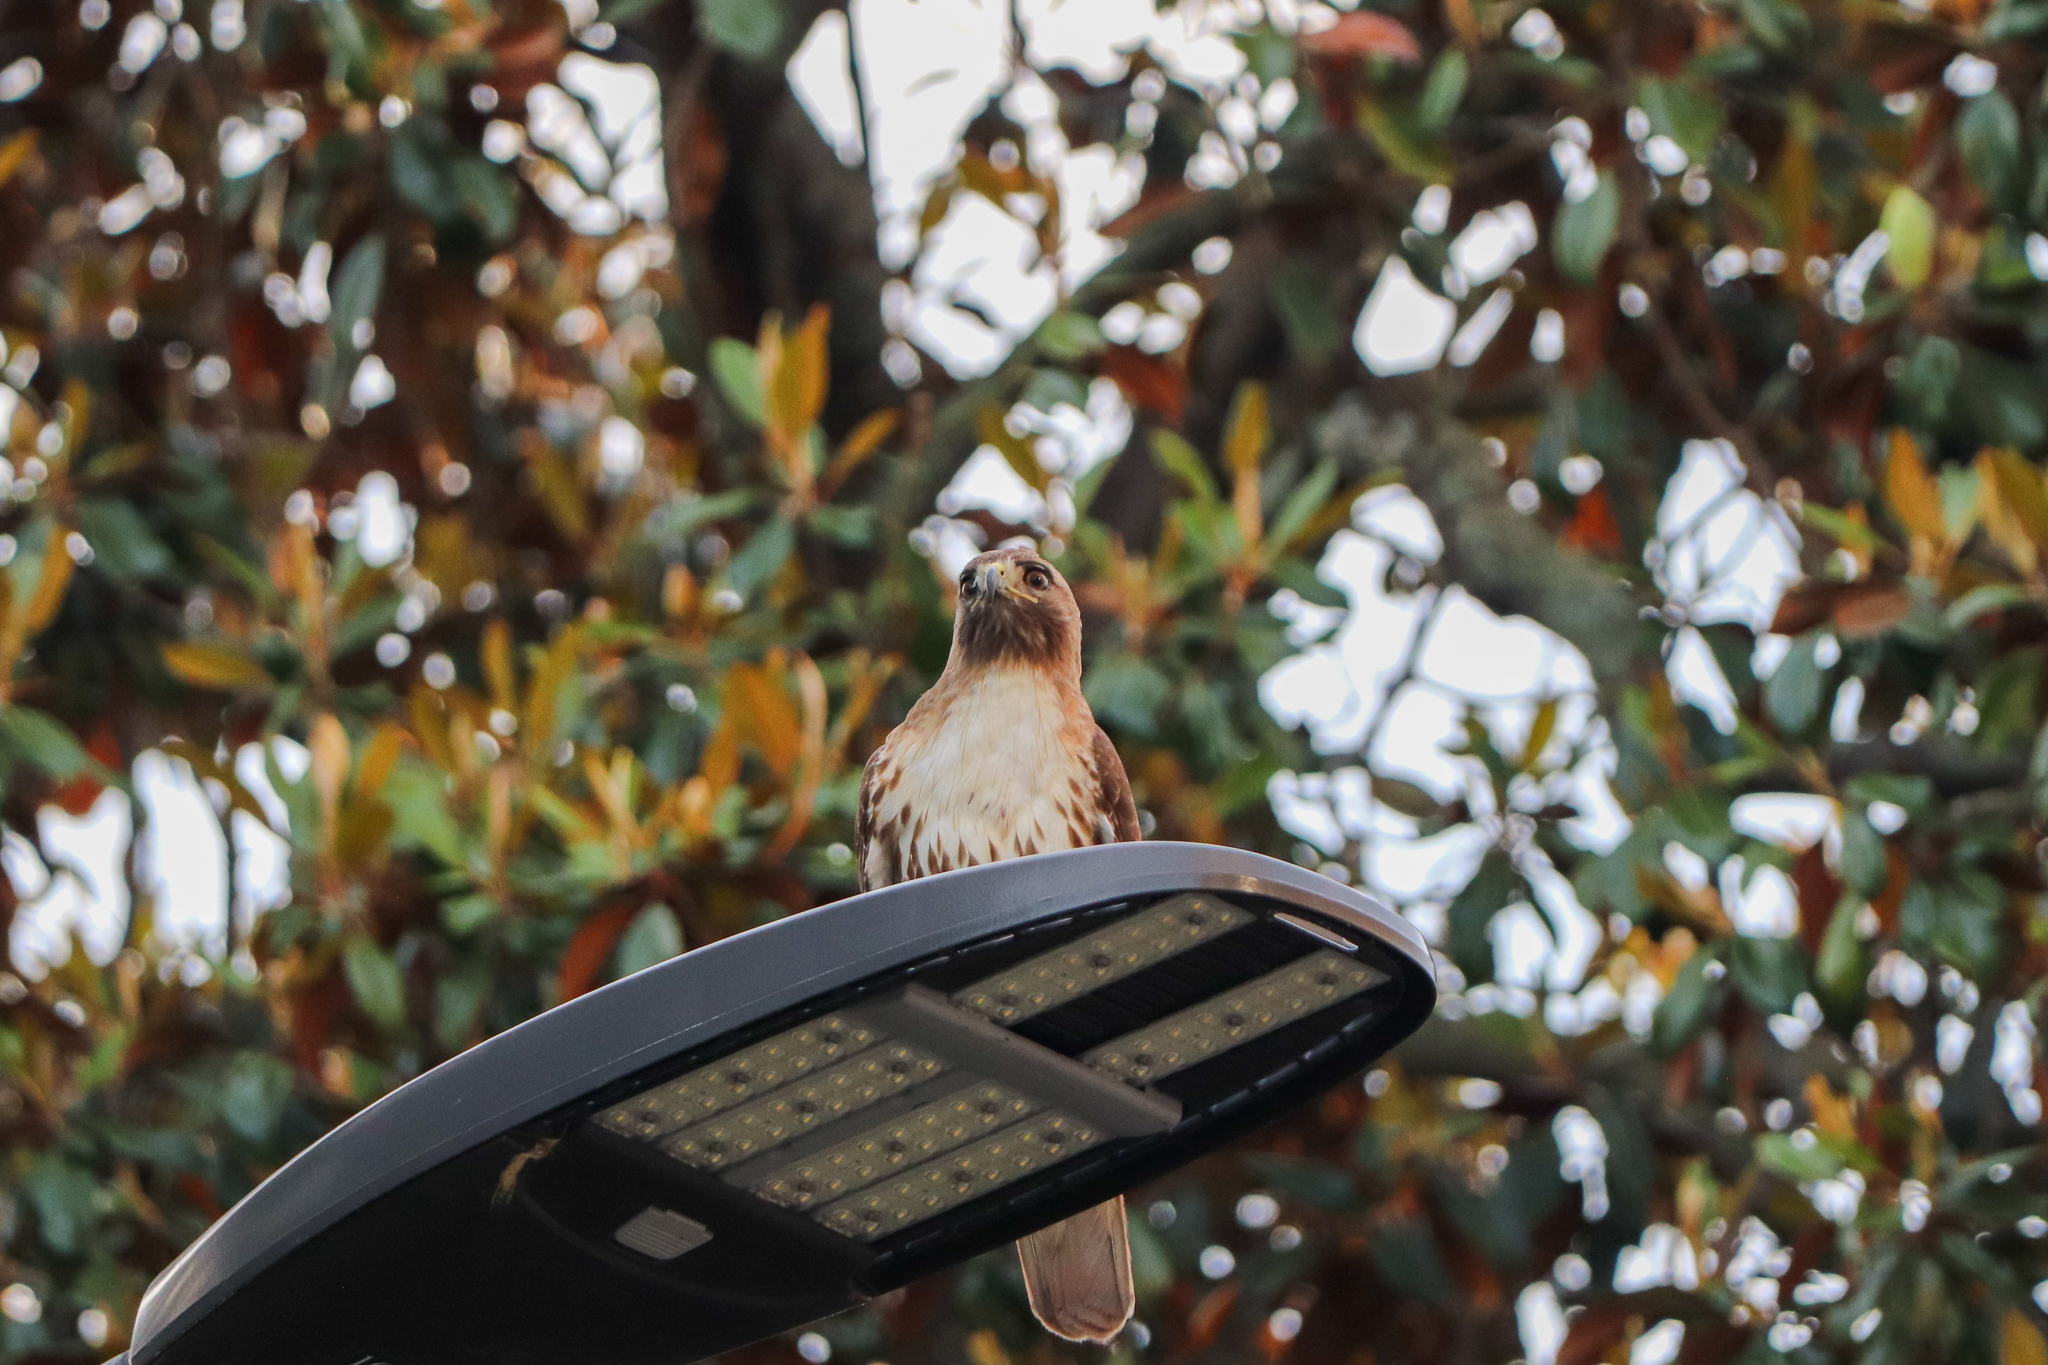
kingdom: Animalia
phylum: Chordata
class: Aves
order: Accipitriformes
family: Accipitridae
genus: Buteo
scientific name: Buteo jamaicensis
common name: Red-tailed hawk
